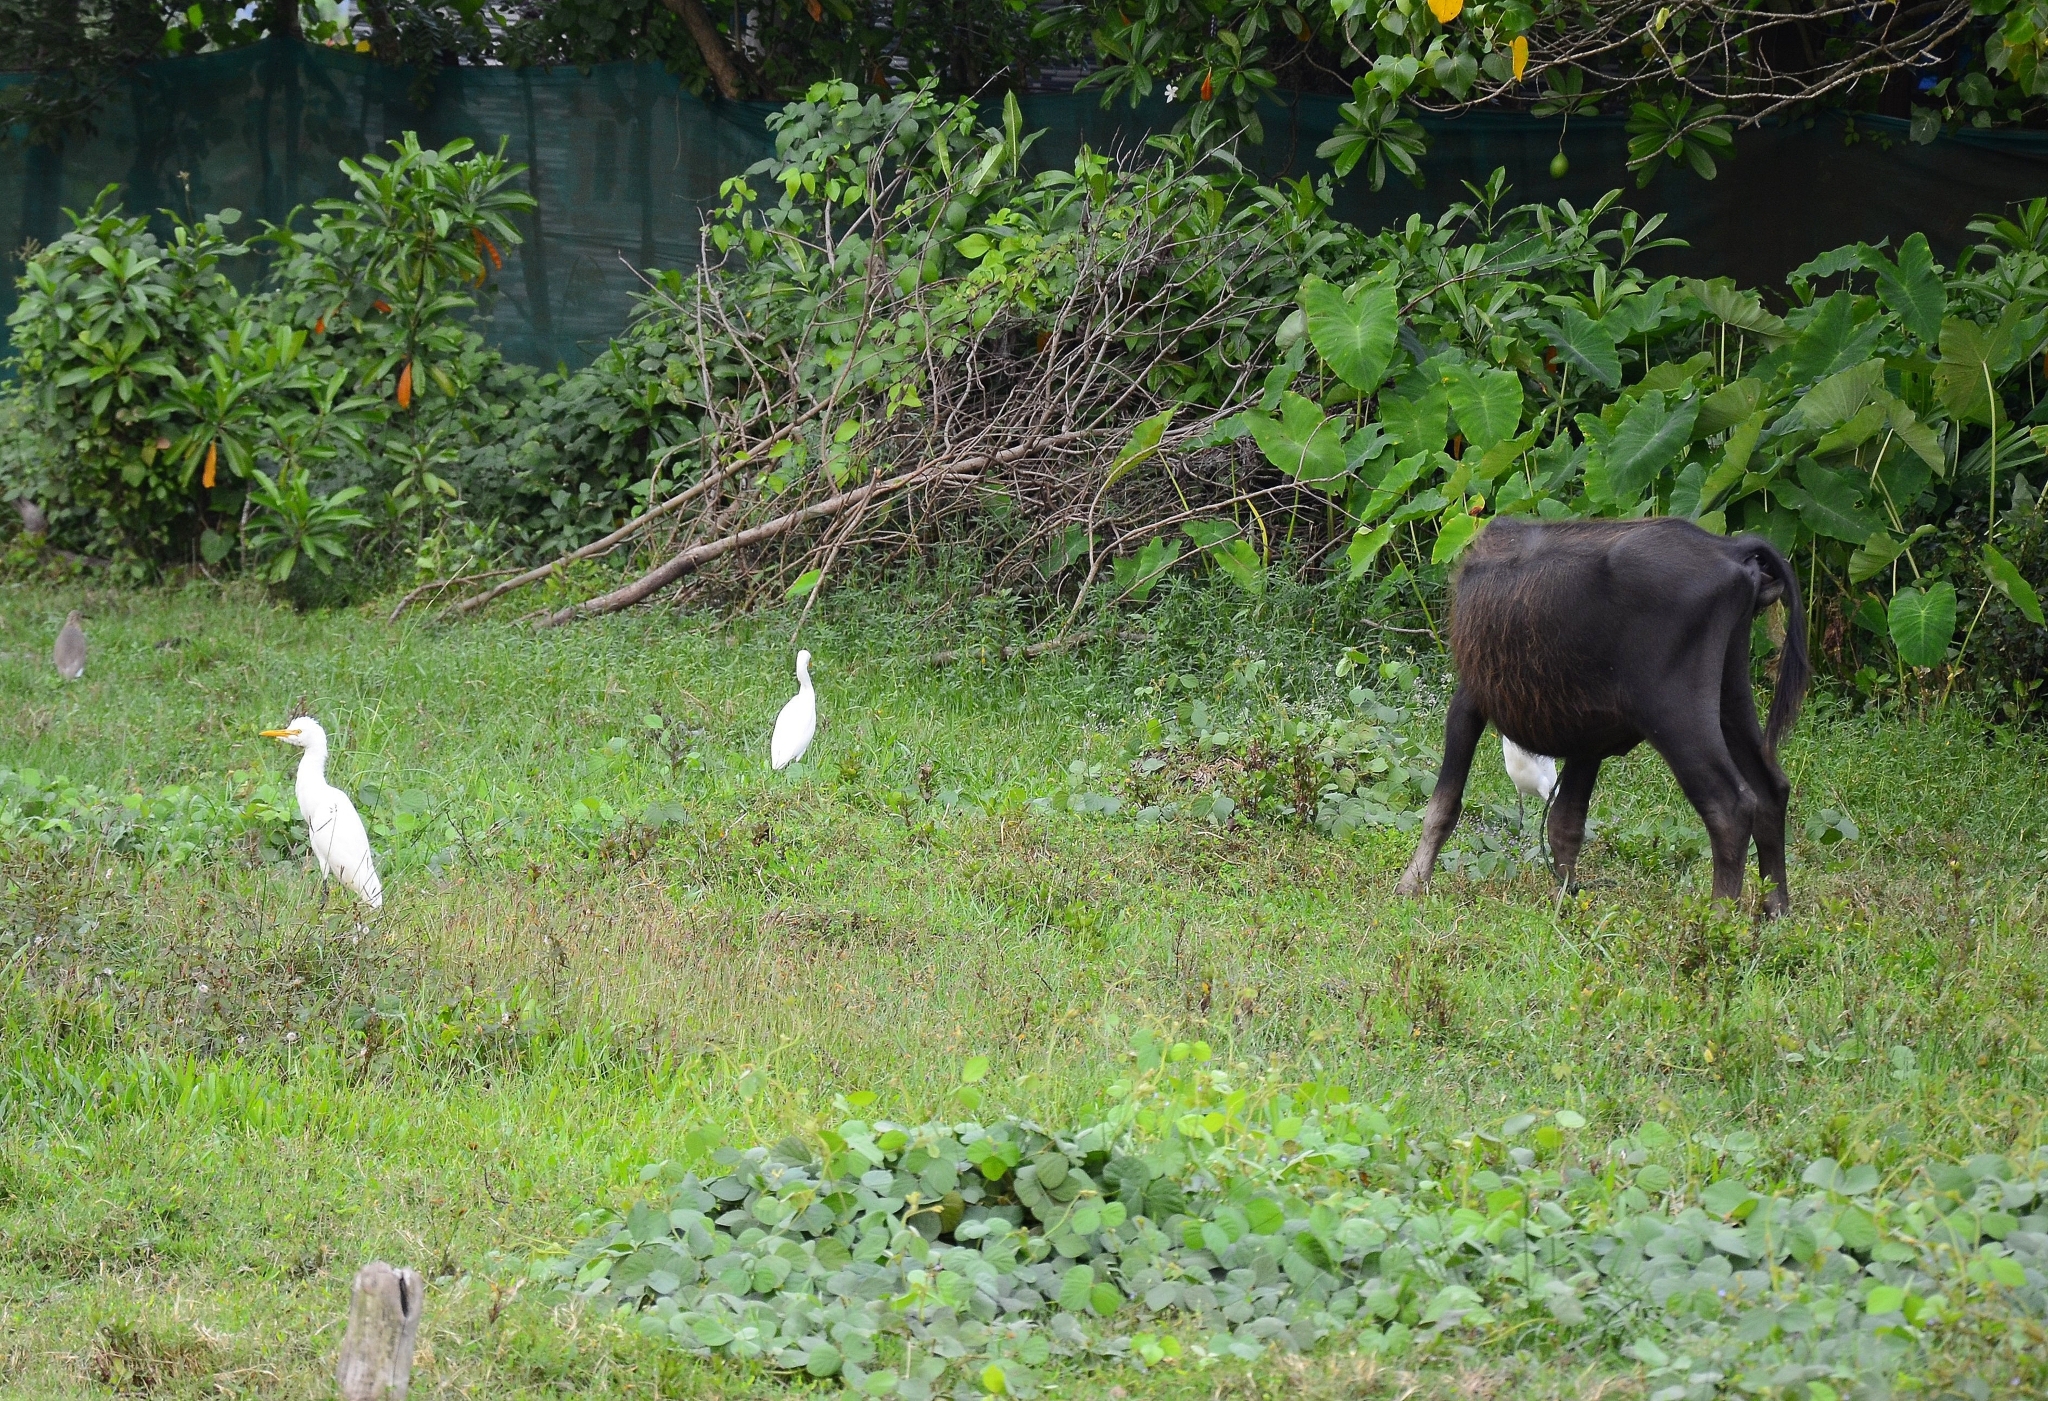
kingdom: Animalia
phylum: Chordata
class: Aves
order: Pelecaniformes
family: Ardeidae
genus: Bubulcus
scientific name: Bubulcus coromandus
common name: Eastern cattle egret
